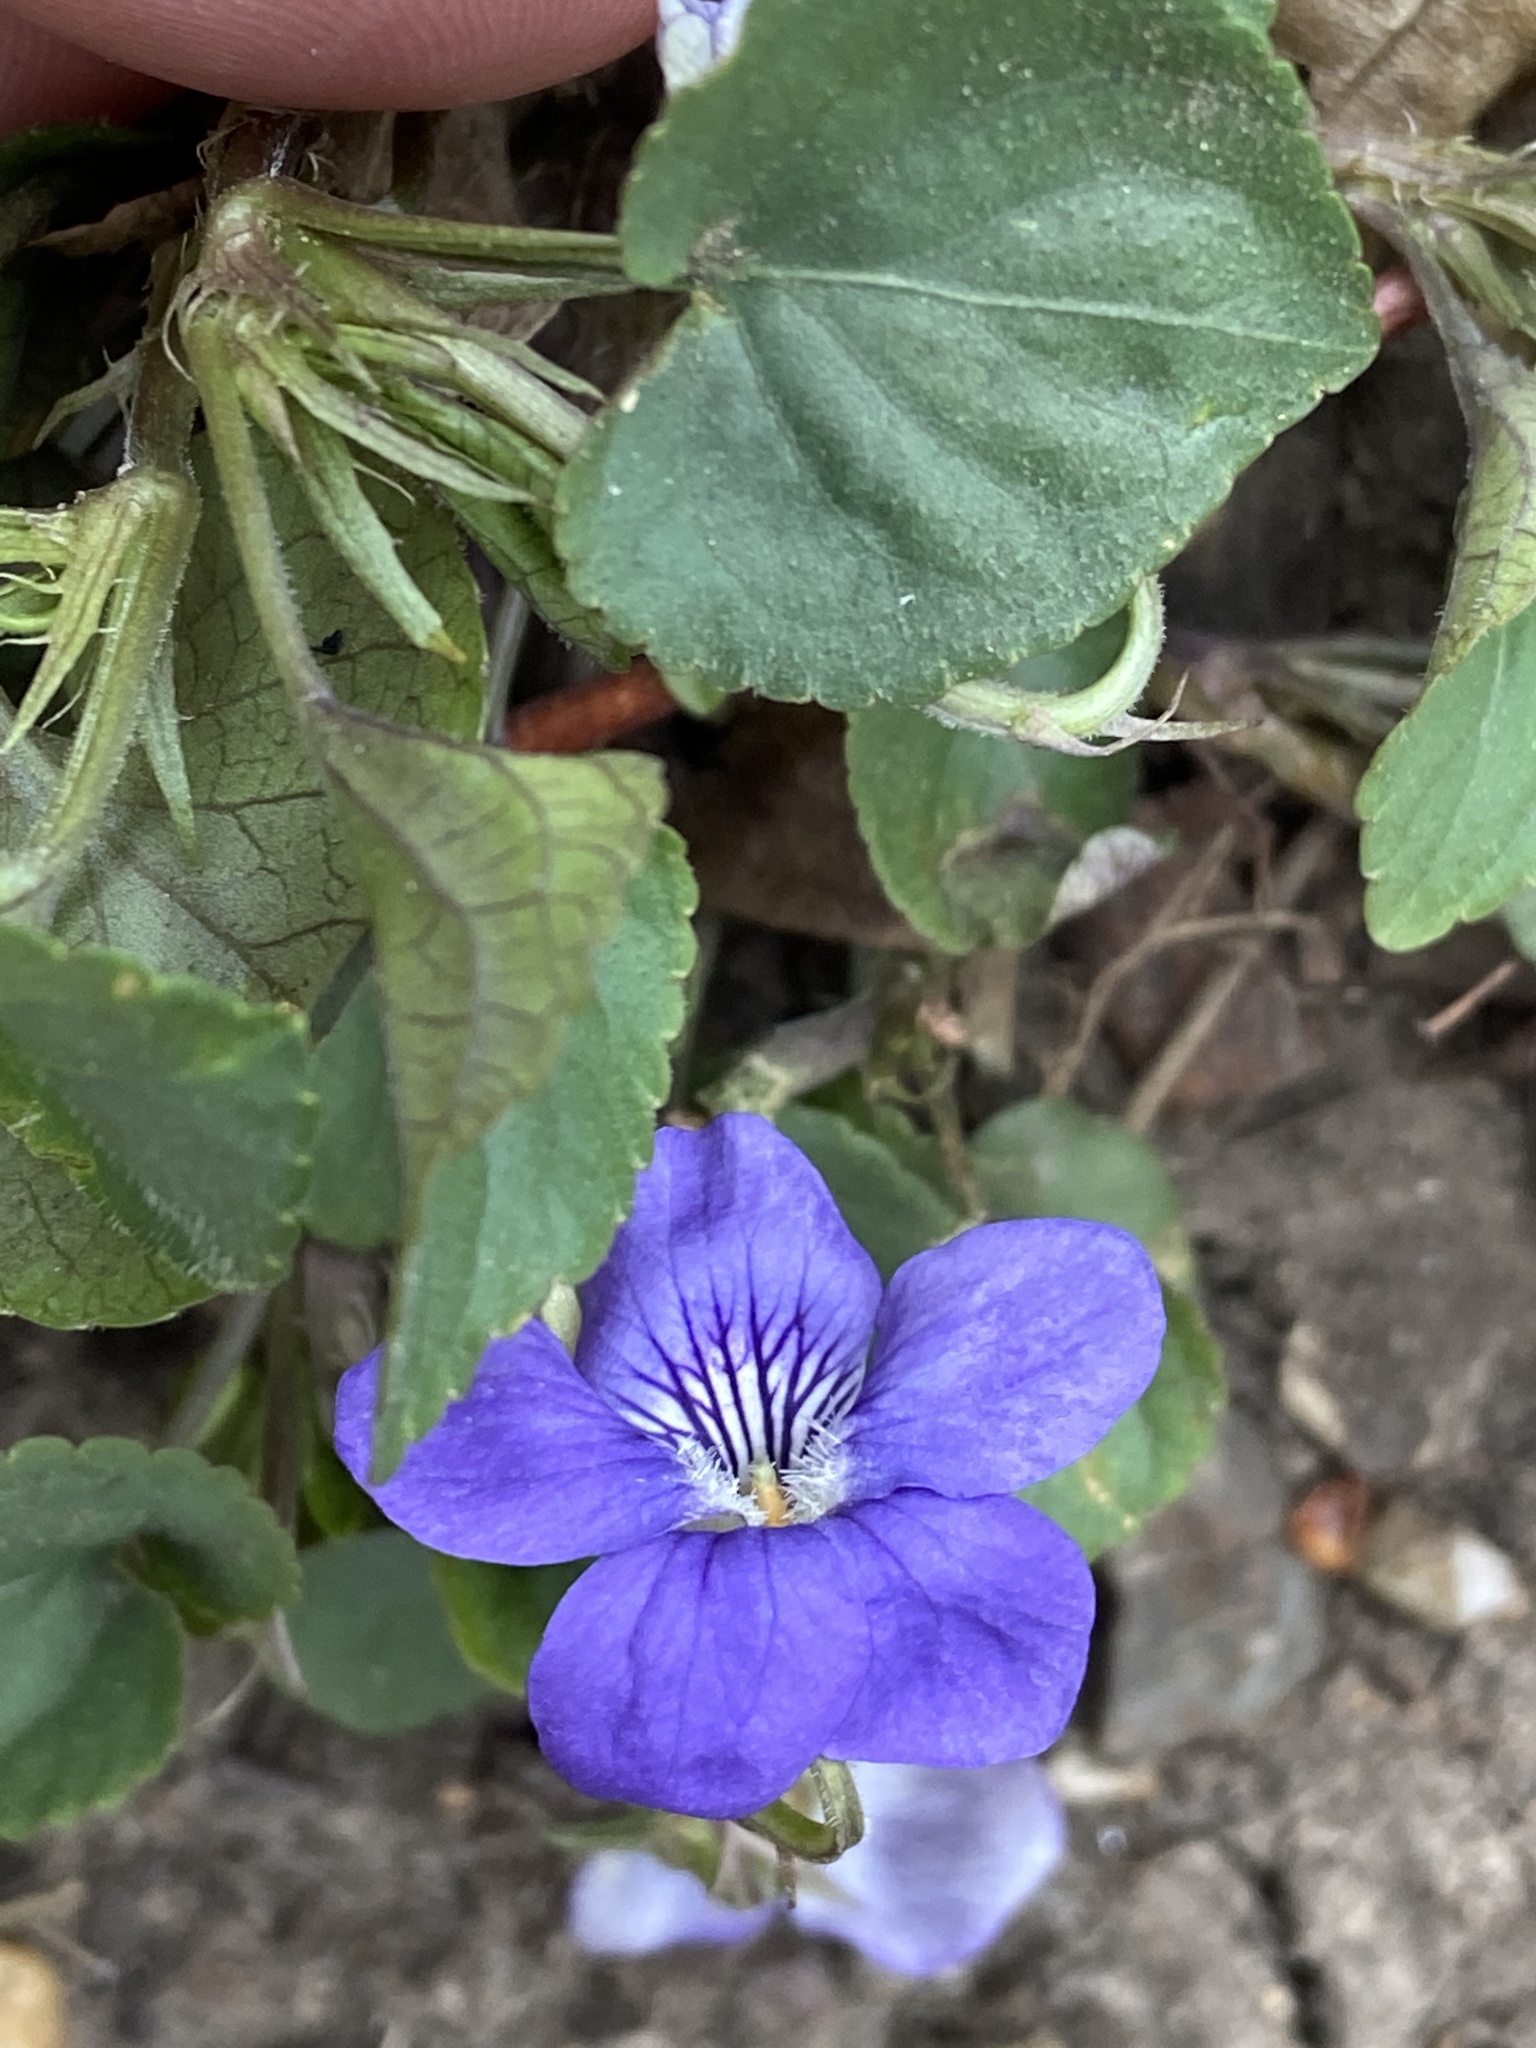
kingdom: Plantae
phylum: Tracheophyta
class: Magnoliopsida
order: Malpighiales
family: Violaceae
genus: Viola
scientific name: Viola riviniana
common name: Common dog-violet
